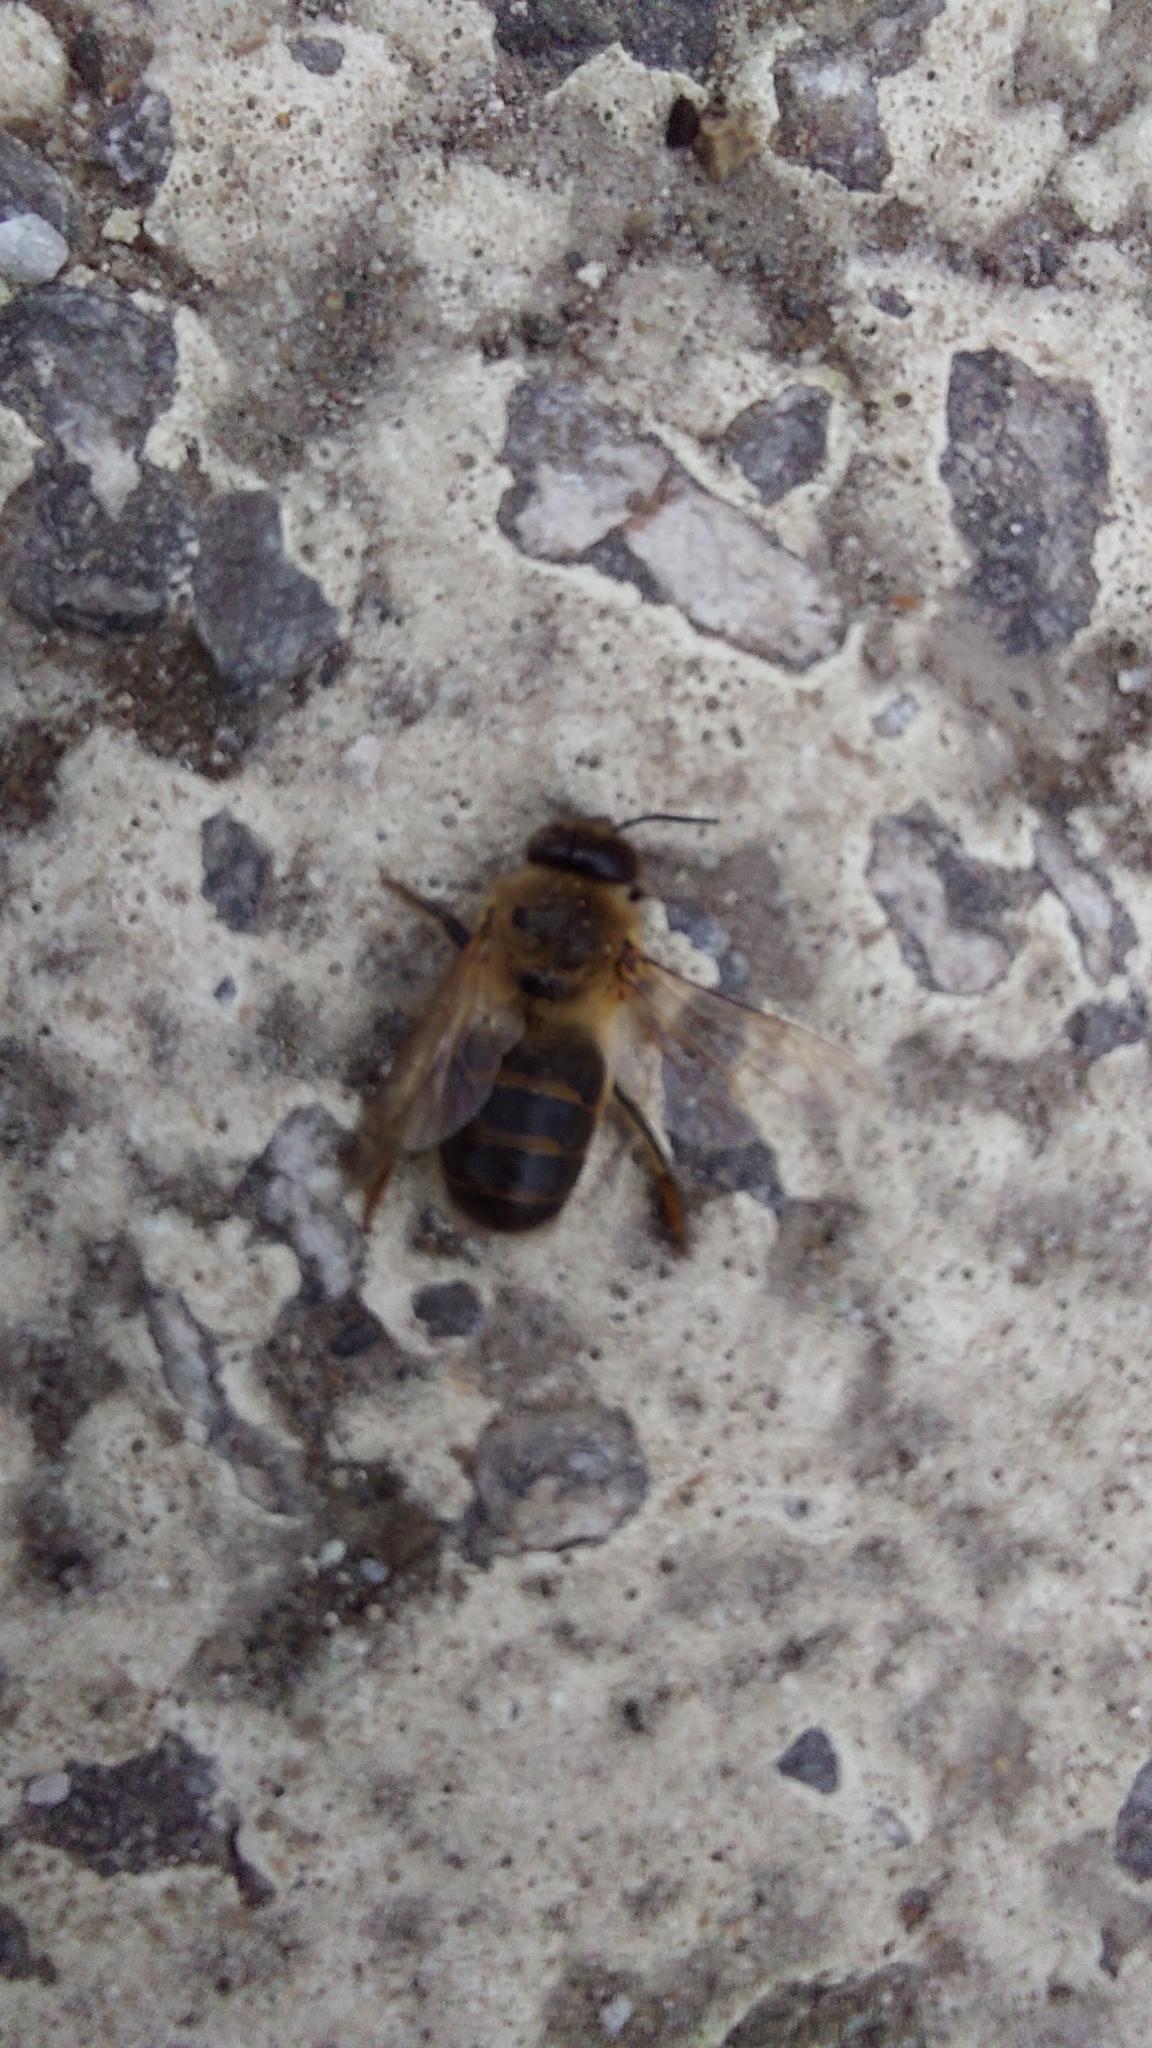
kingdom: Animalia
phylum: Arthropoda
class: Insecta
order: Hymenoptera
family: Apidae
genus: Apis
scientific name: Apis mellifera
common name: Honey bee
